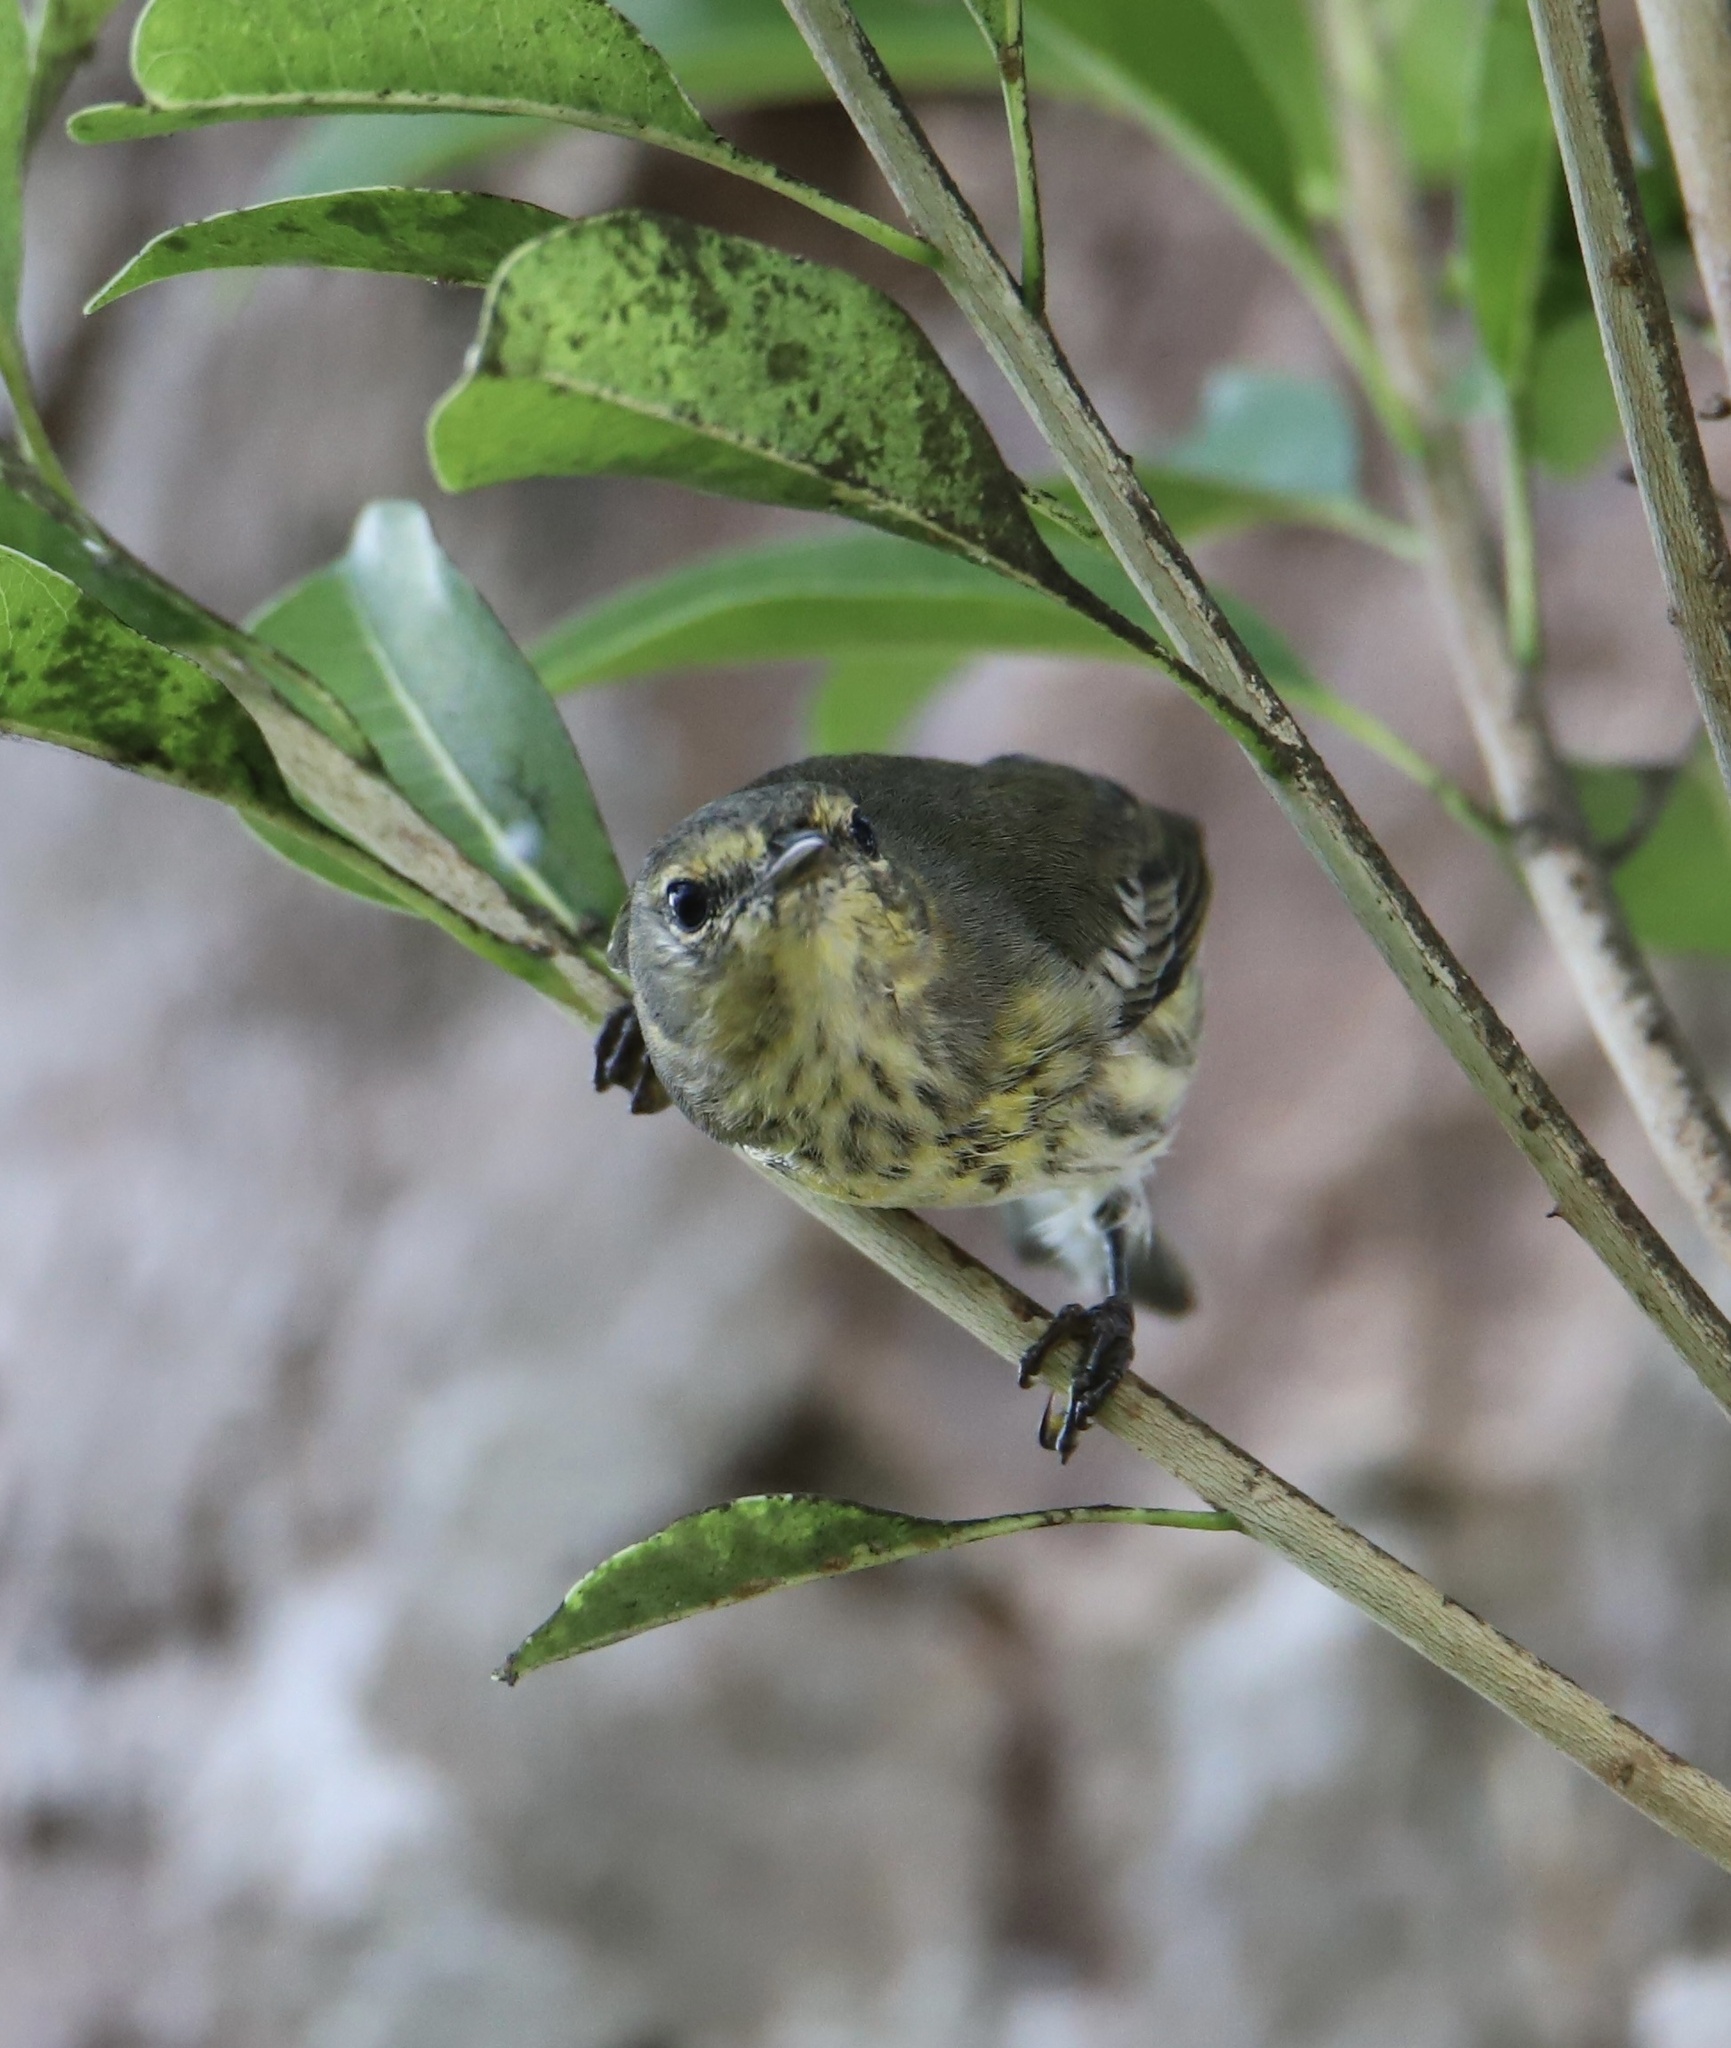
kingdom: Animalia
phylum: Chordata
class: Aves
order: Passeriformes
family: Parulidae
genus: Setophaga
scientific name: Setophaga tigrina
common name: Cape may warbler
